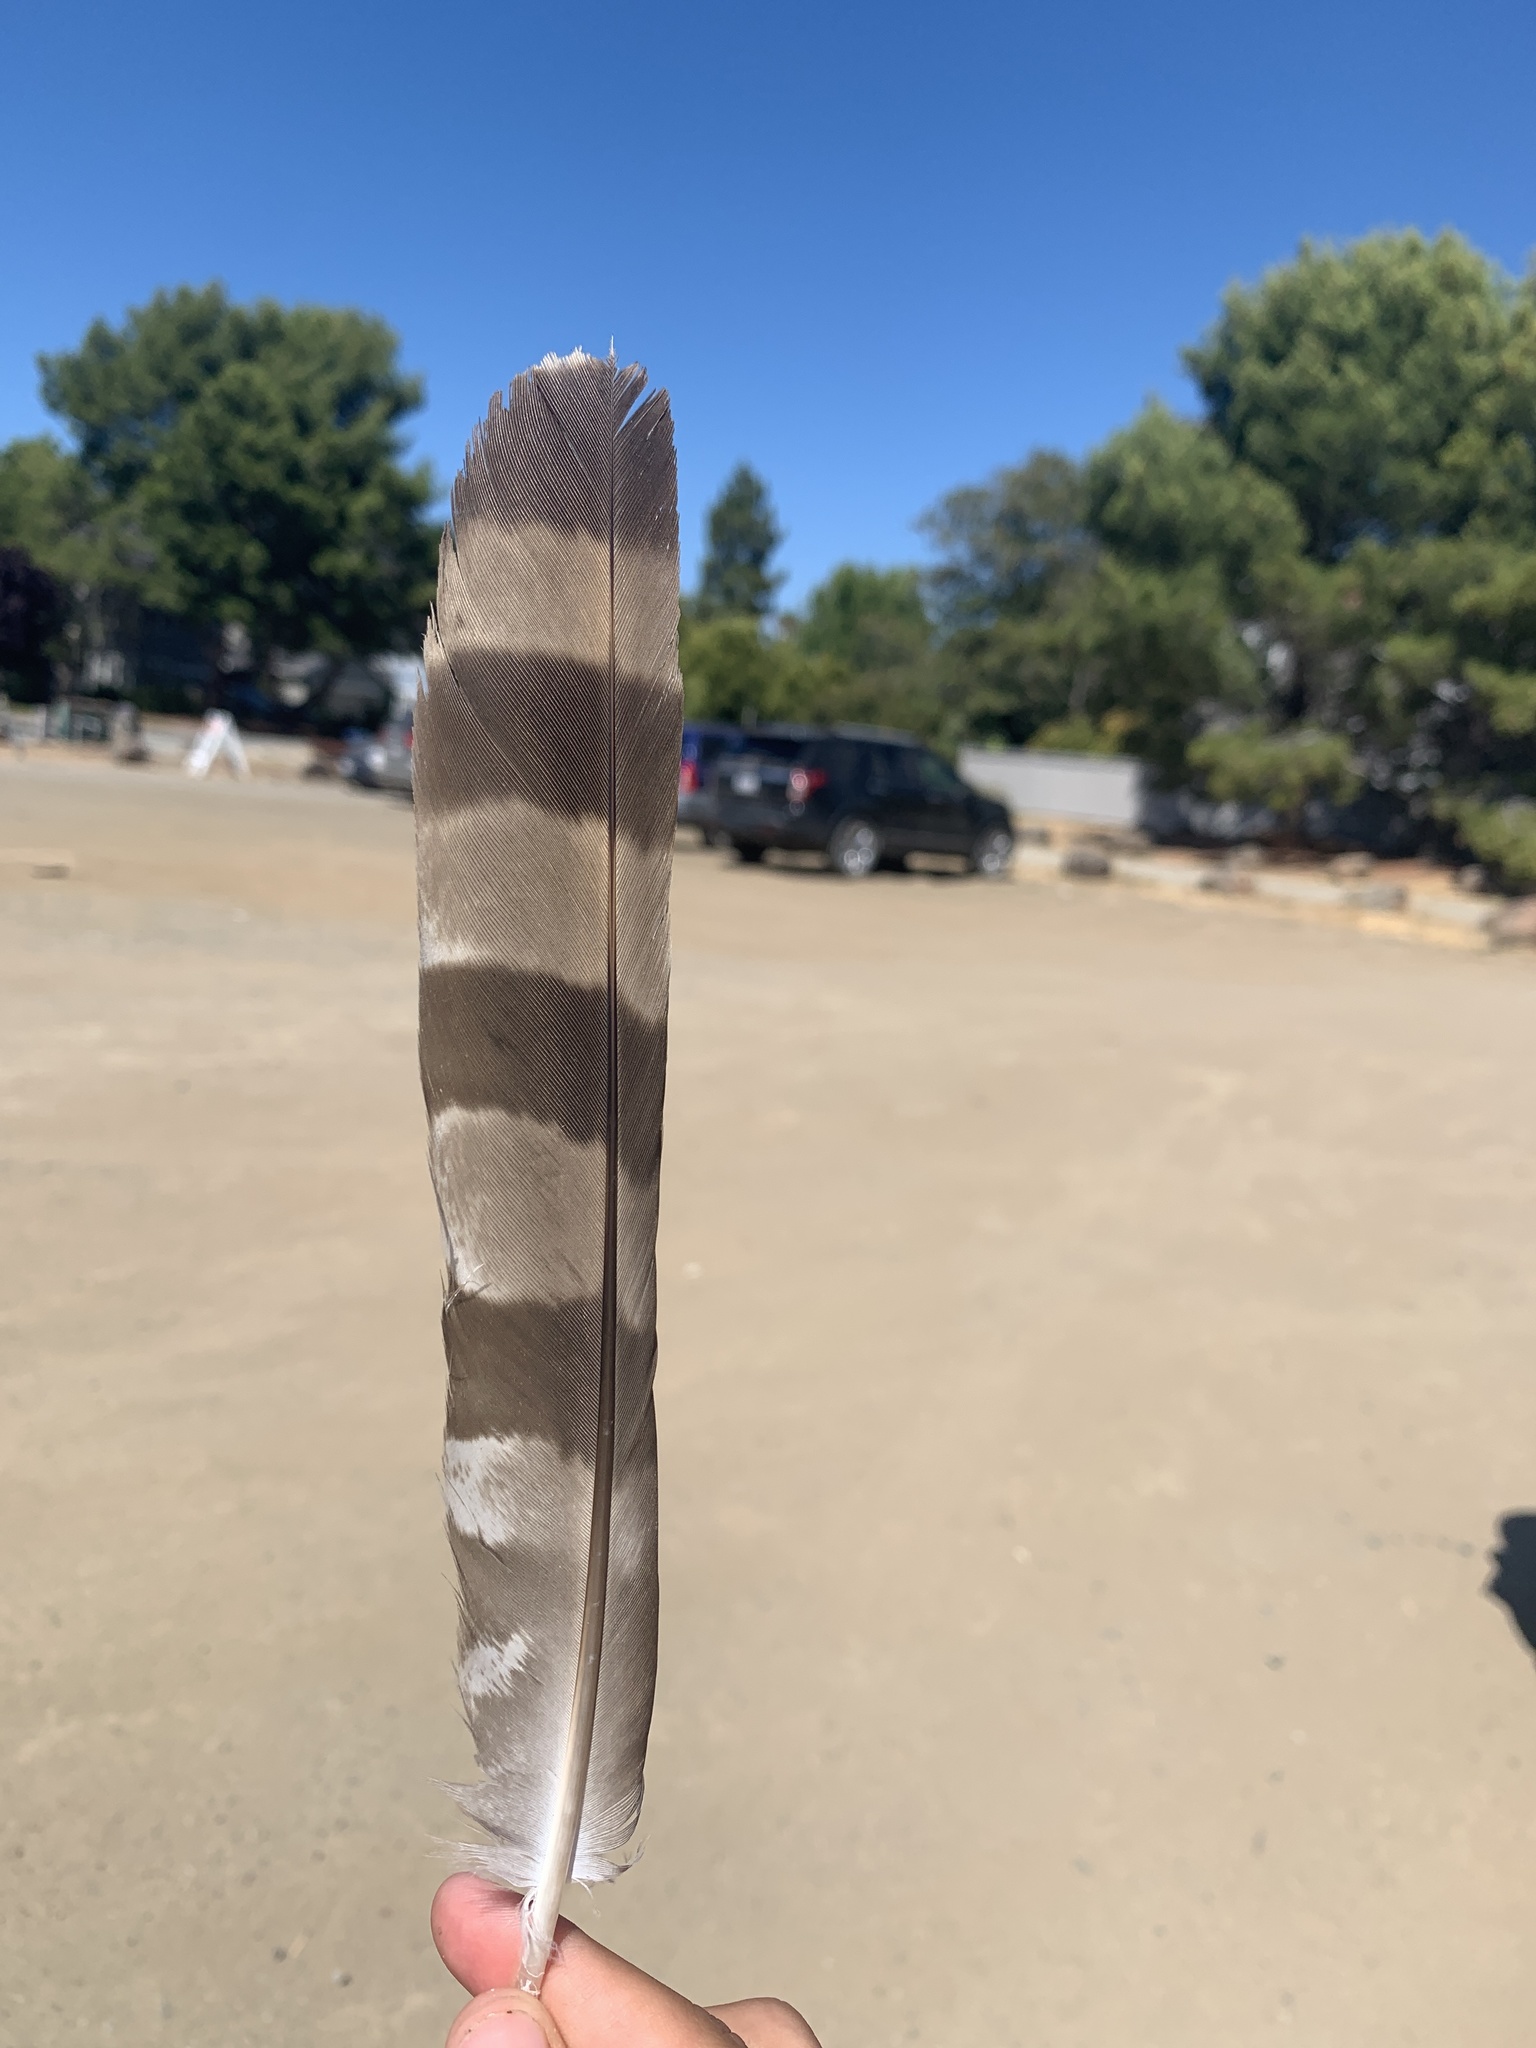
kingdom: Animalia
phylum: Chordata
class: Aves
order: Accipitriformes
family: Accipitridae
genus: Accipiter
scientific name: Accipiter cooperii
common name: Cooper's hawk
